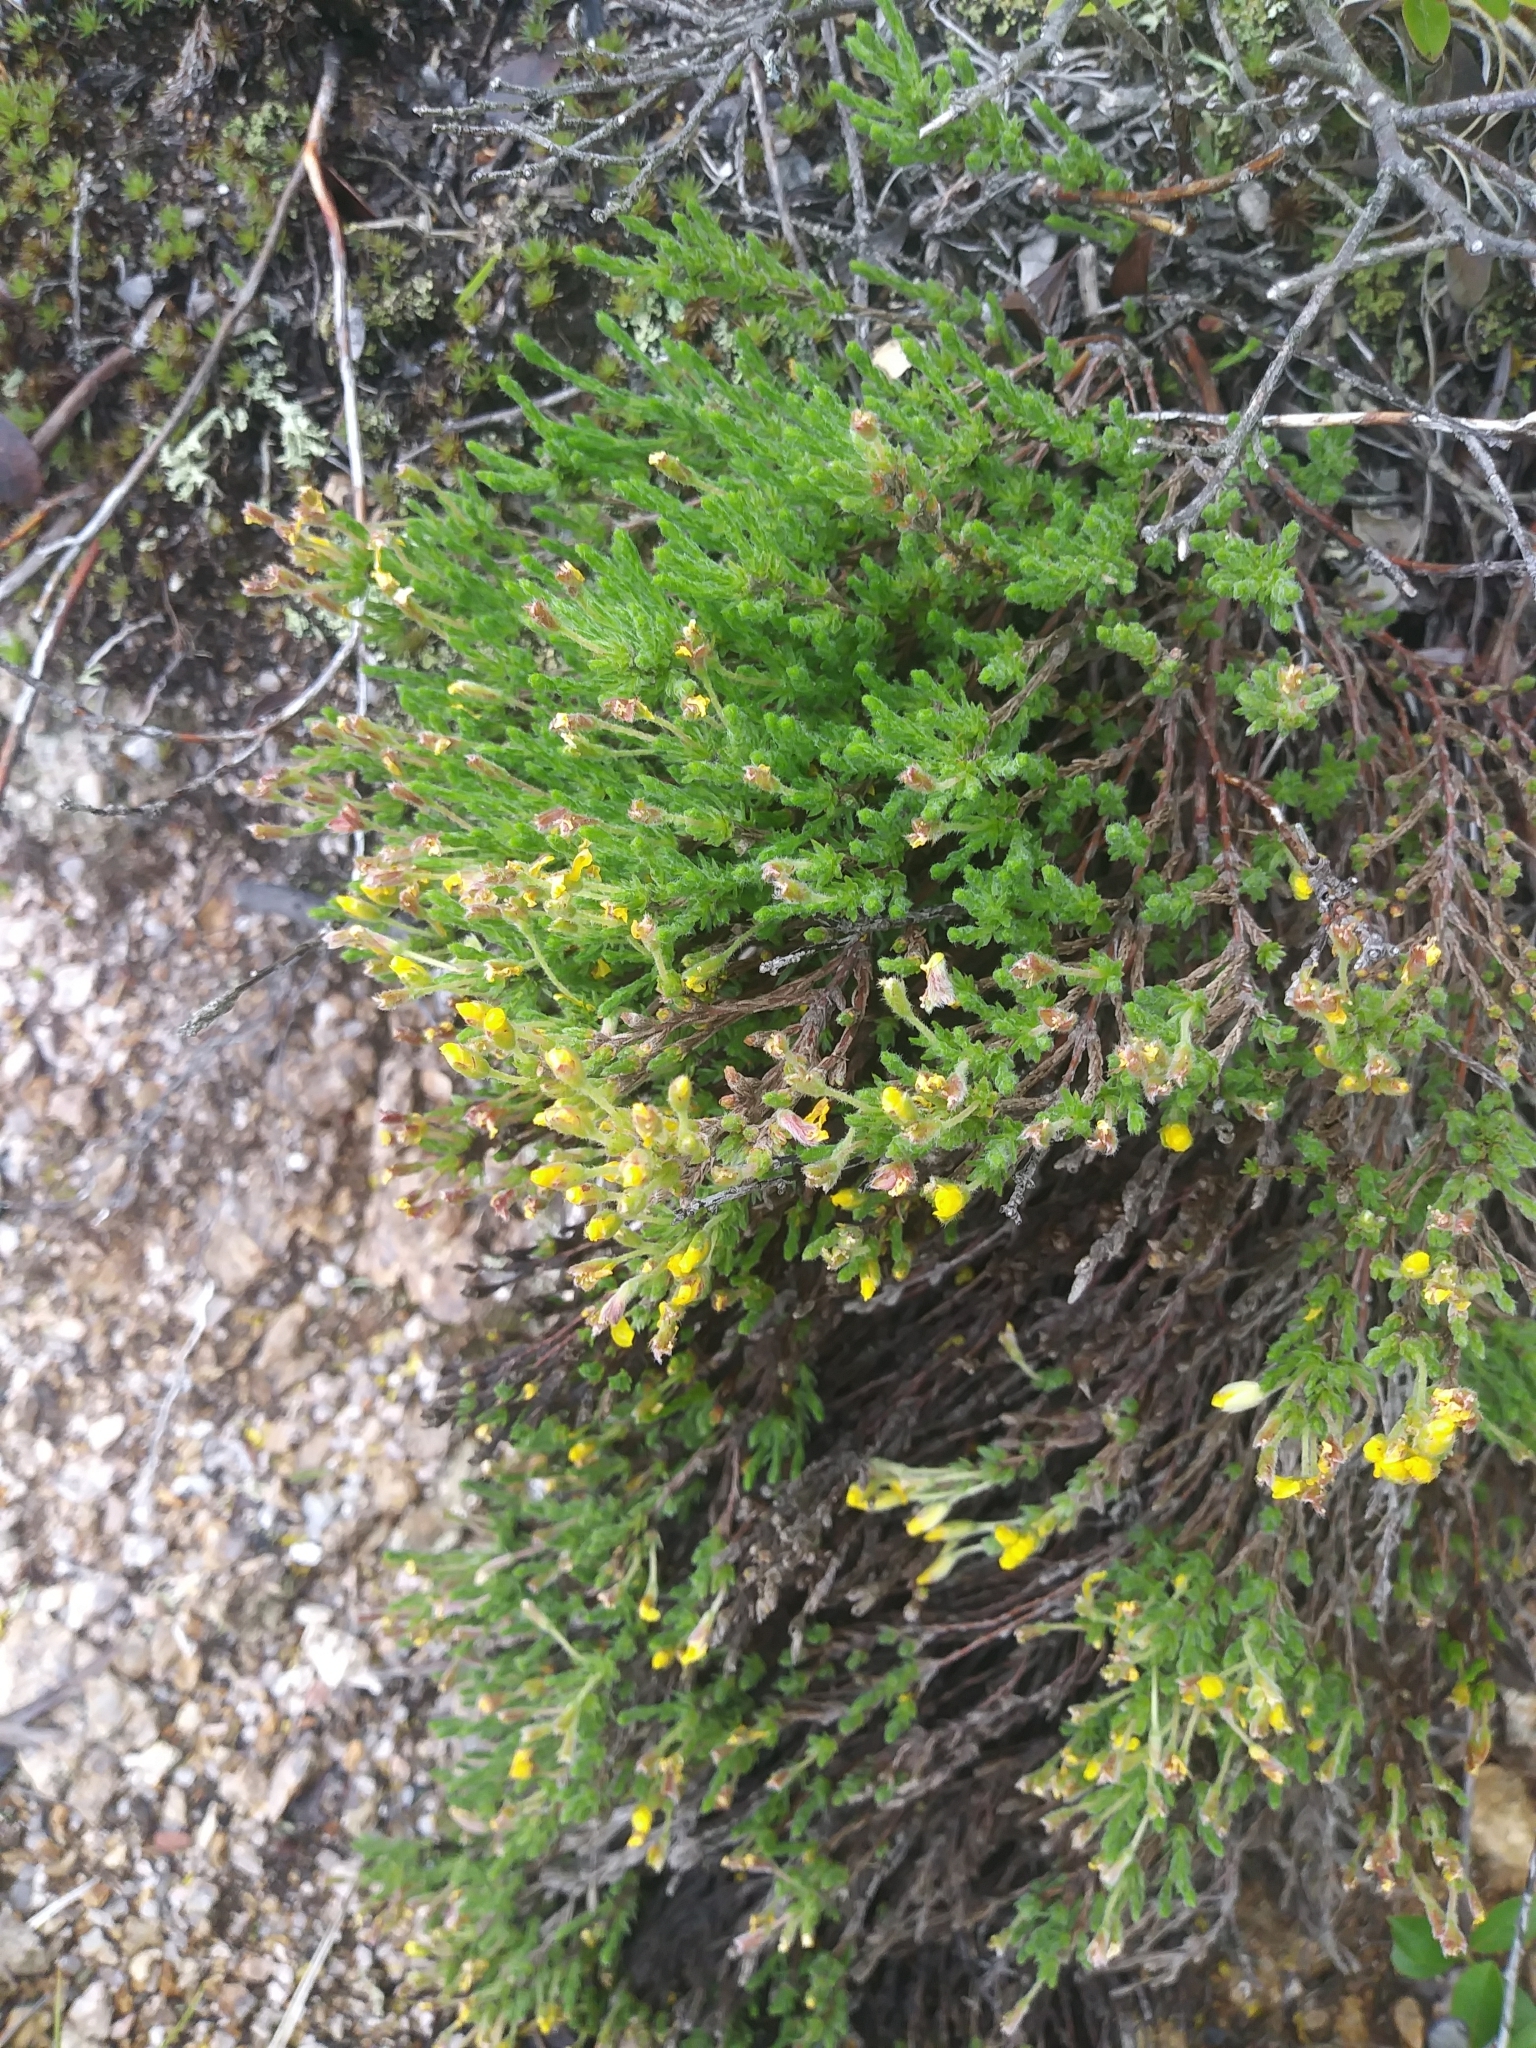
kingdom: Plantae
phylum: Tracheophyta
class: Magnoliopsida
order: Malvales
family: Cistaceae
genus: Hudsonia
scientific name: Hudsonia ericoides
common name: Golden-heather
